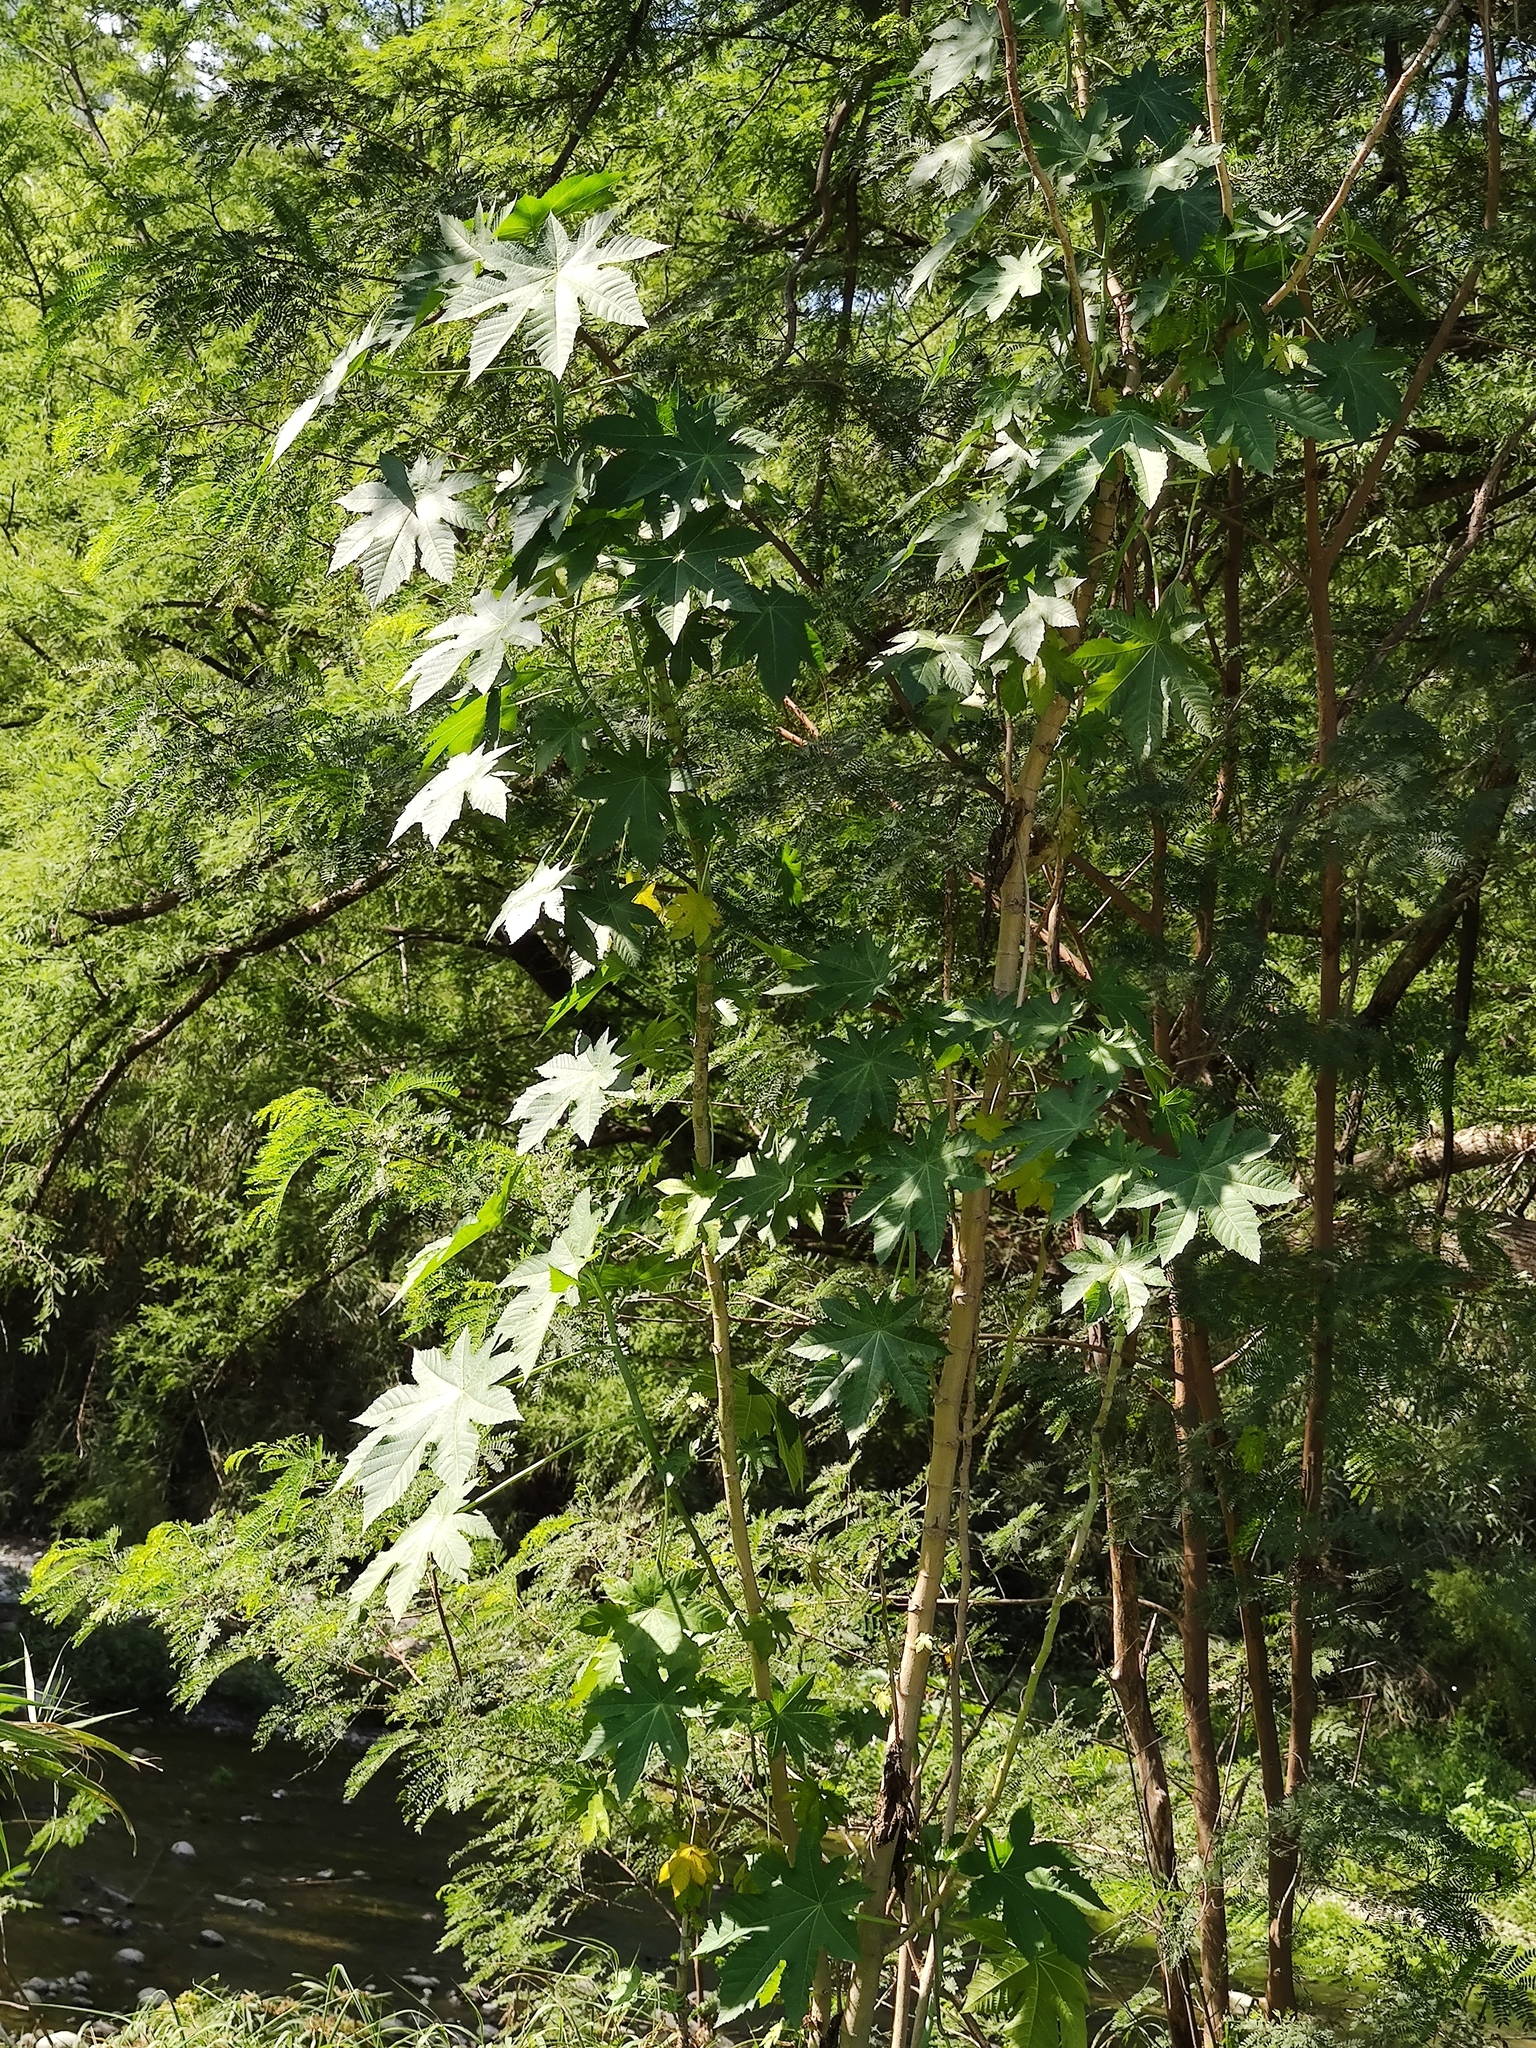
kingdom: Plantae
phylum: Tracheophyta
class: Magnoliopsida
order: Malpighiales
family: Euphorbiaceae
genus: Ricinus
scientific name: Ricinus communis
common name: Castor-oil-plant
